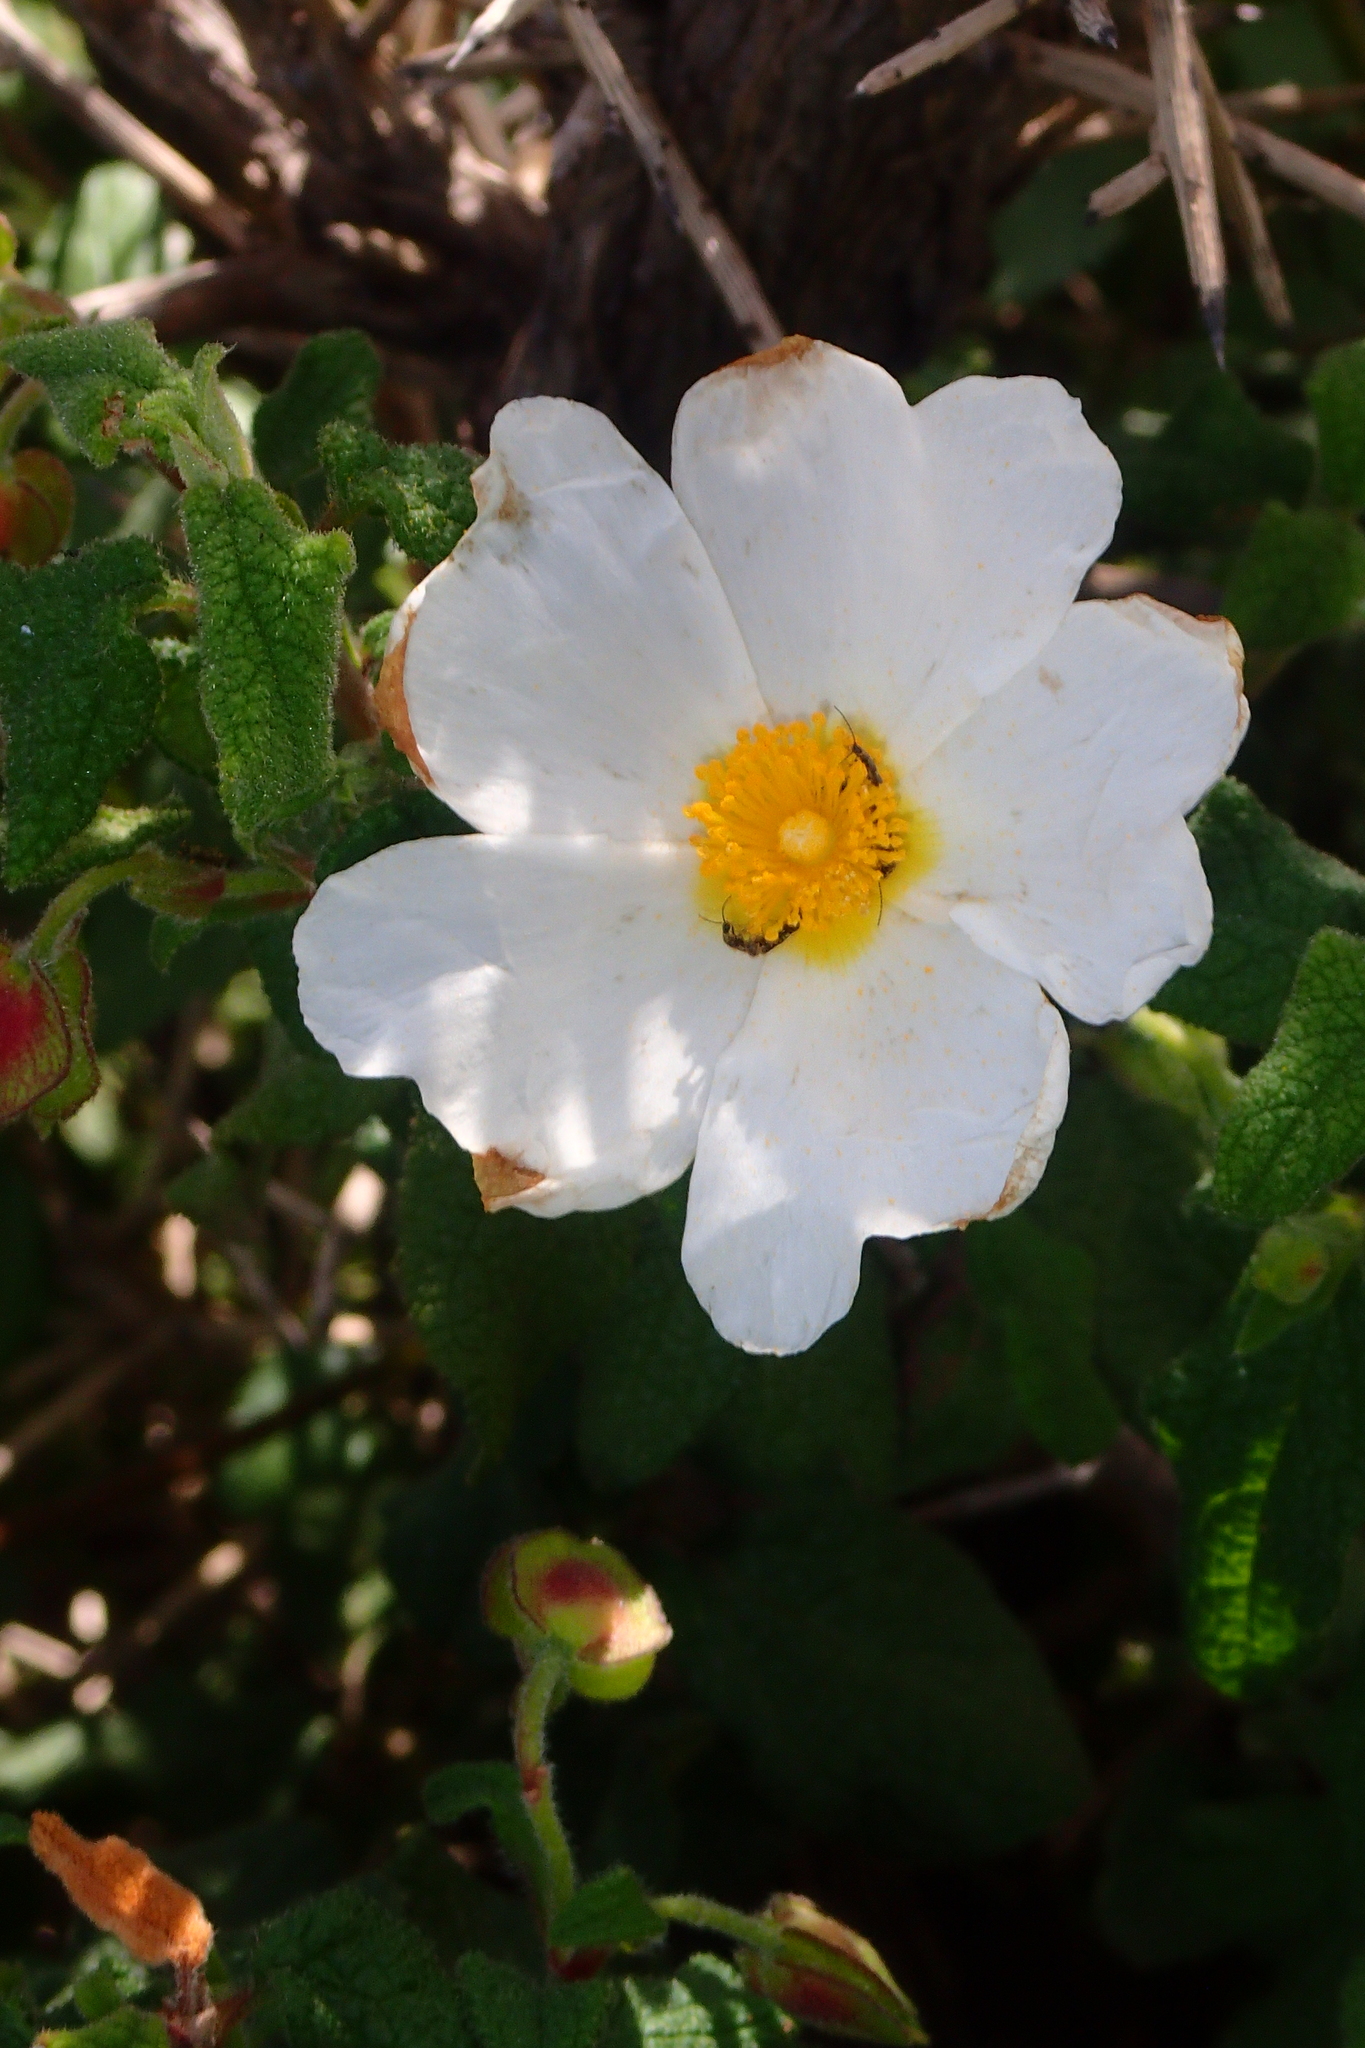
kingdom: Plantae
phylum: Tracheophyta
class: Magnoliopsida
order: Malvales
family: Cistaceae
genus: Cistus
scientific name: Cistus salviifolius
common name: Salvia cistus
